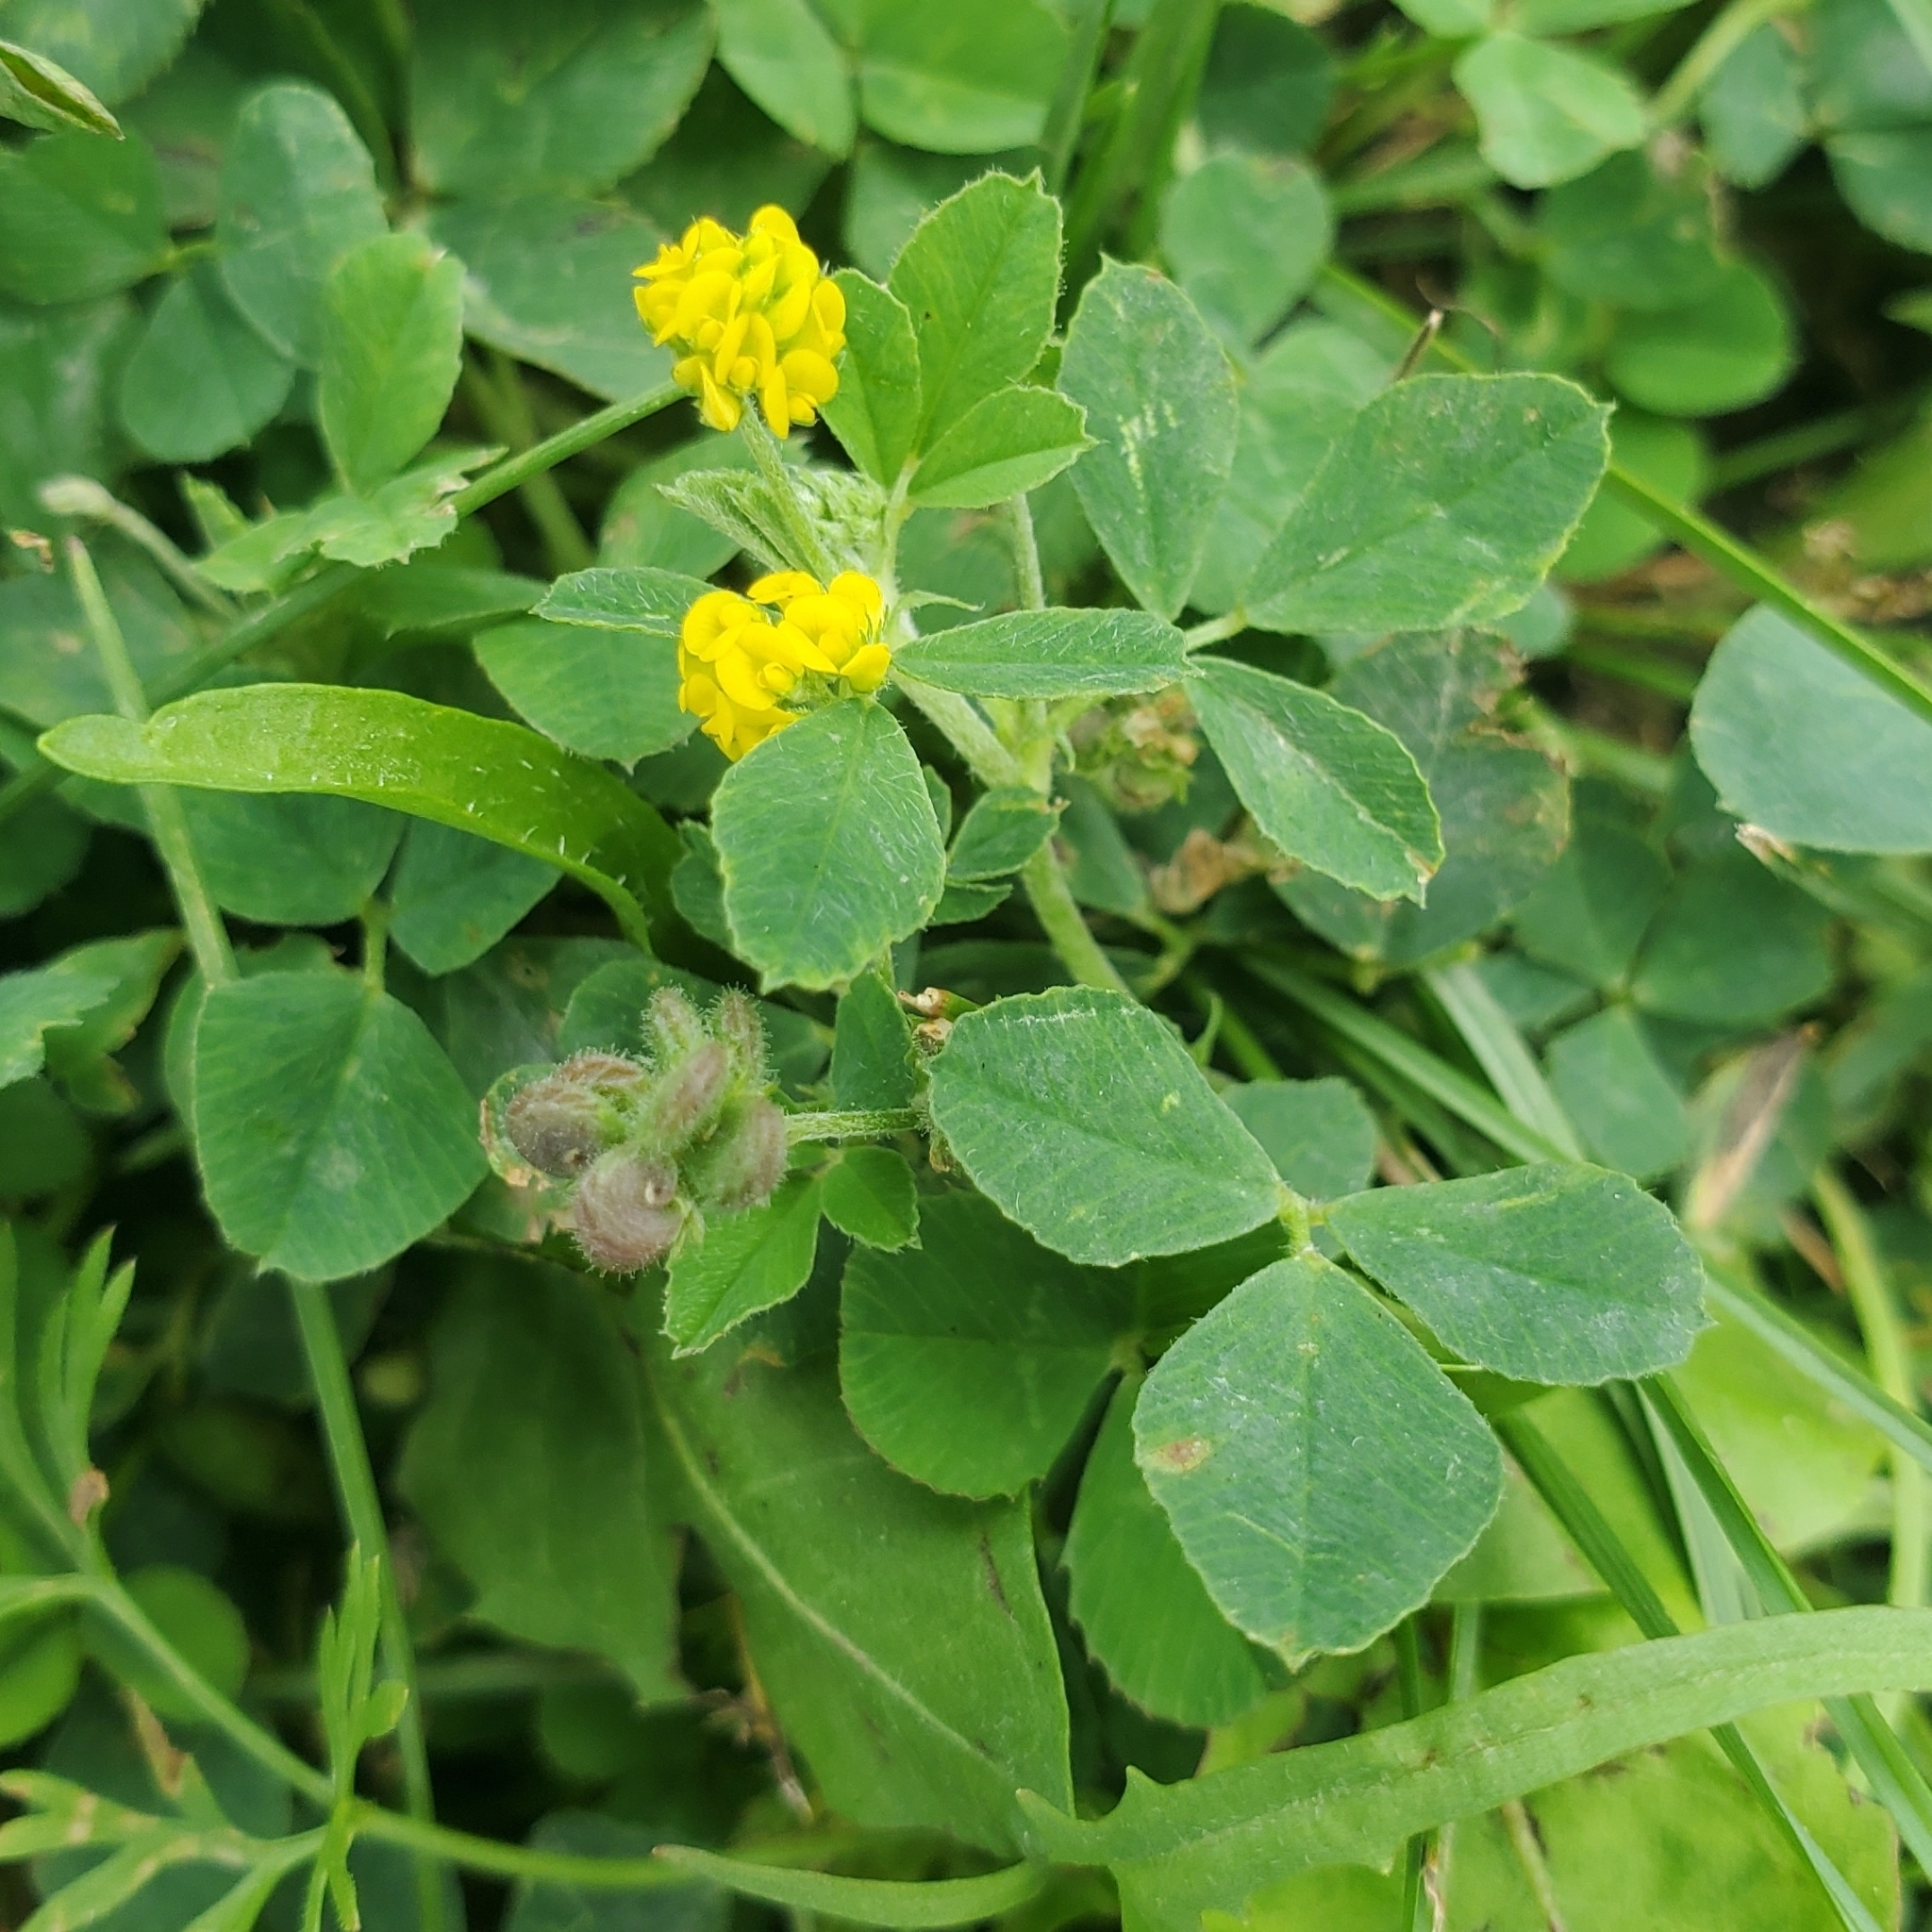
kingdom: Plantae
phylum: Tracheophyta
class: Magnoliopsida
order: Fabales
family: Fabaceae
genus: Medicago
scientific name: Medicago lupulina
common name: Black medick
